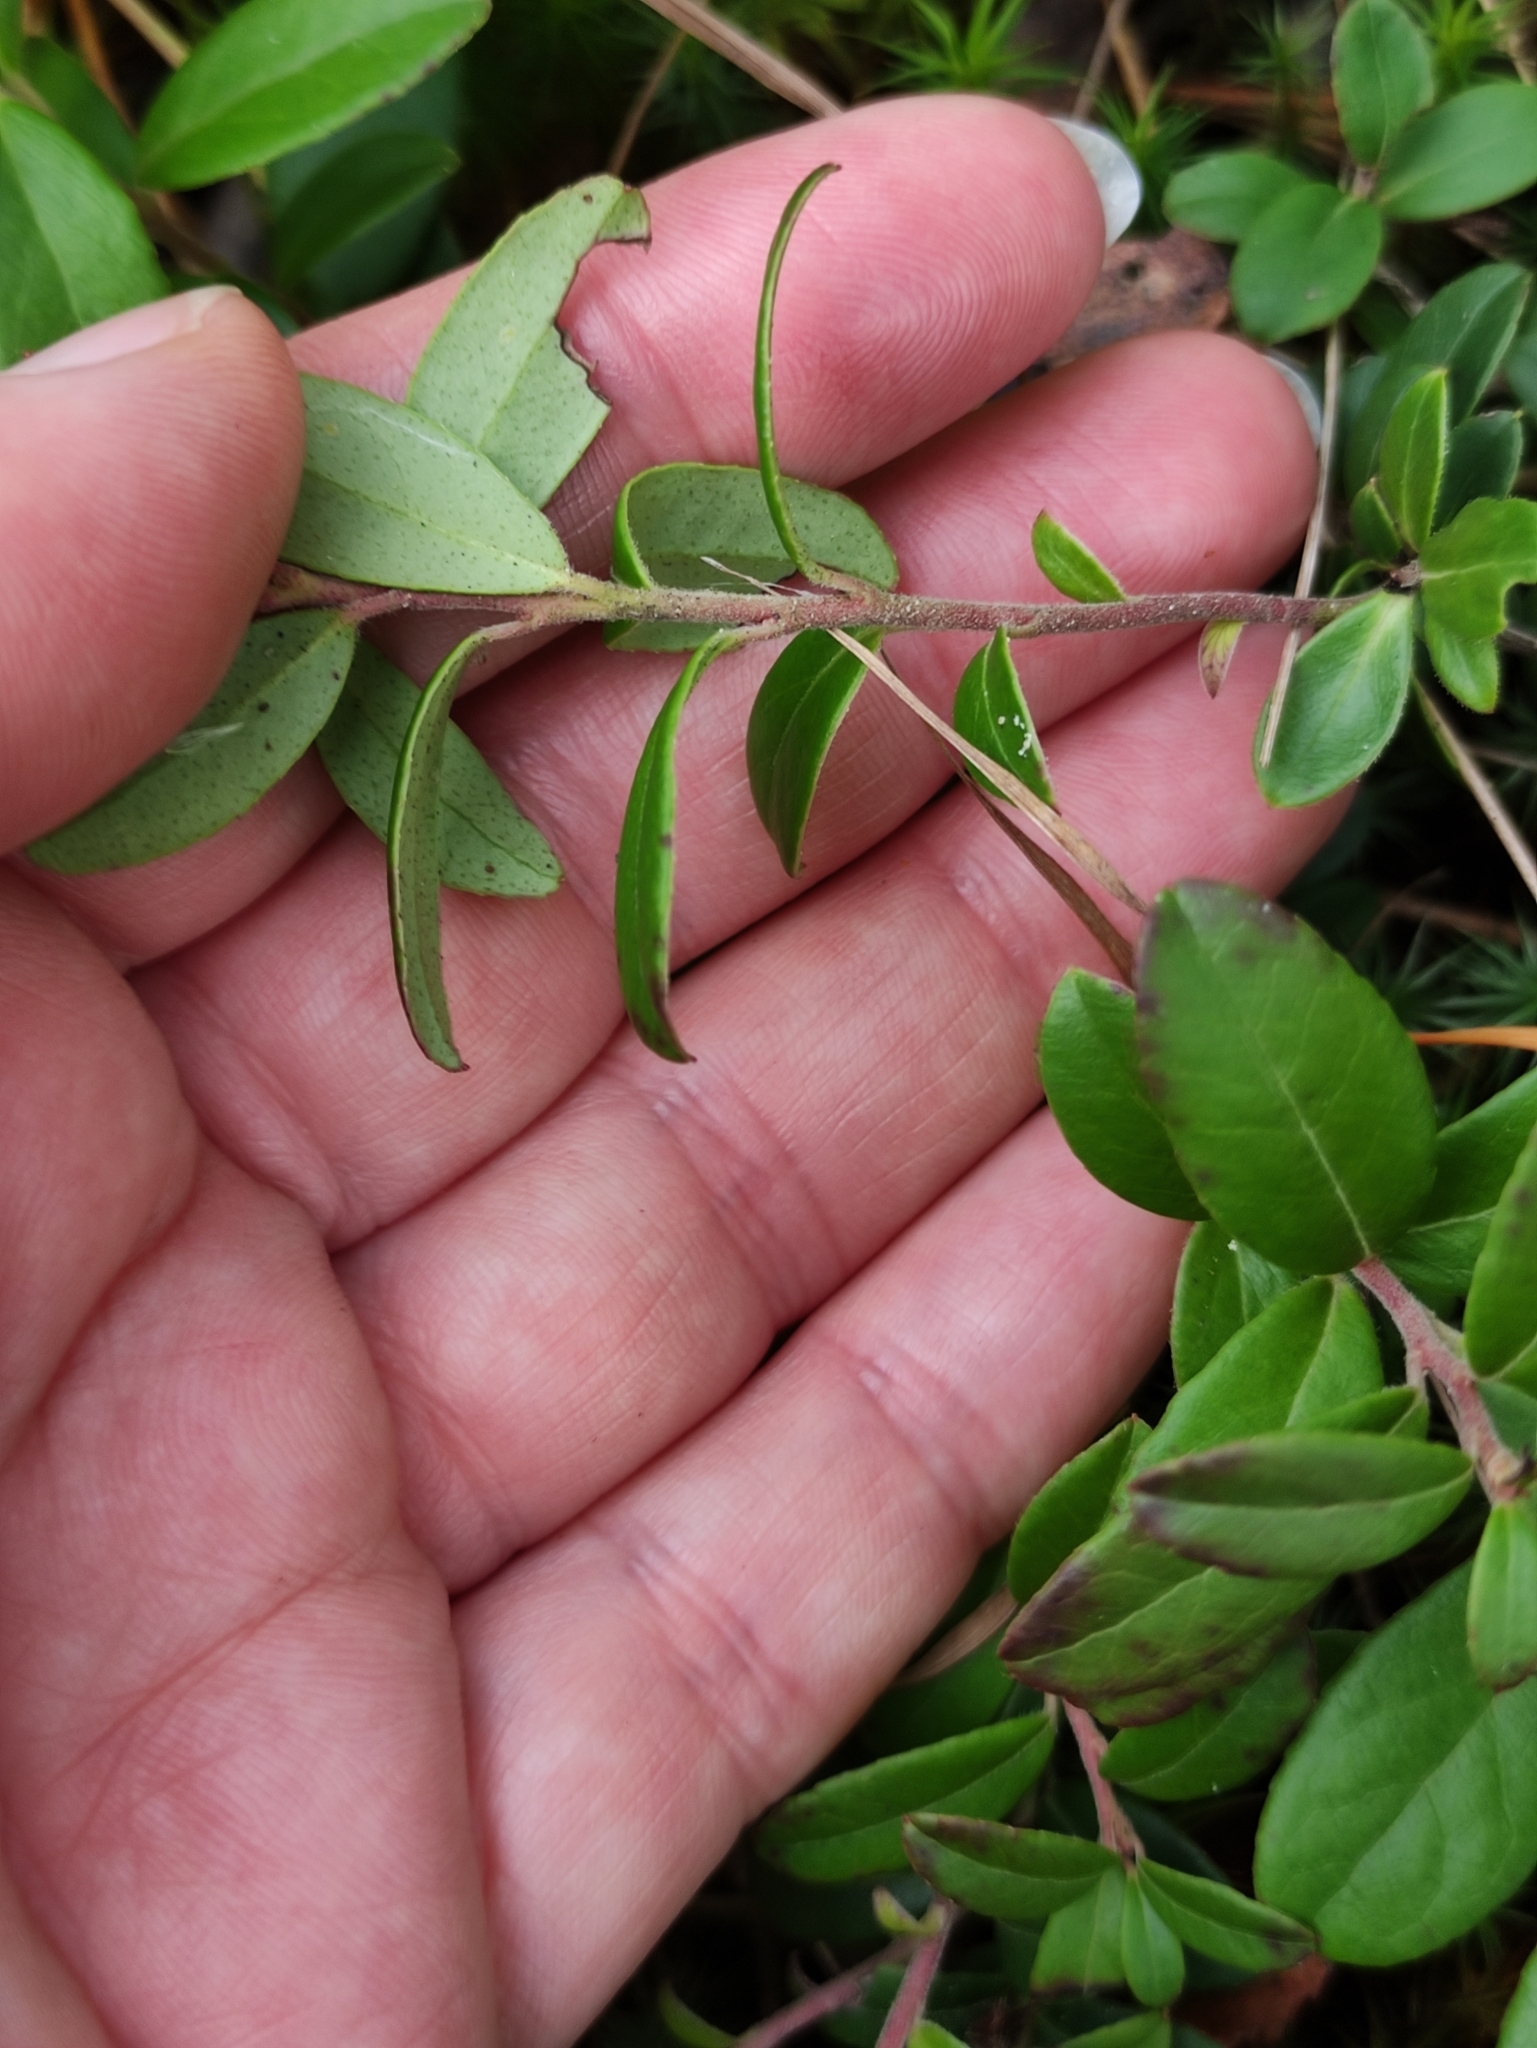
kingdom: Plantae
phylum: Tracheophyta
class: Magnoliopsida
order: Ericales
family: Ericaceae
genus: Vaccinium
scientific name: Vaccinium vitis-idaea
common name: Cowberry
